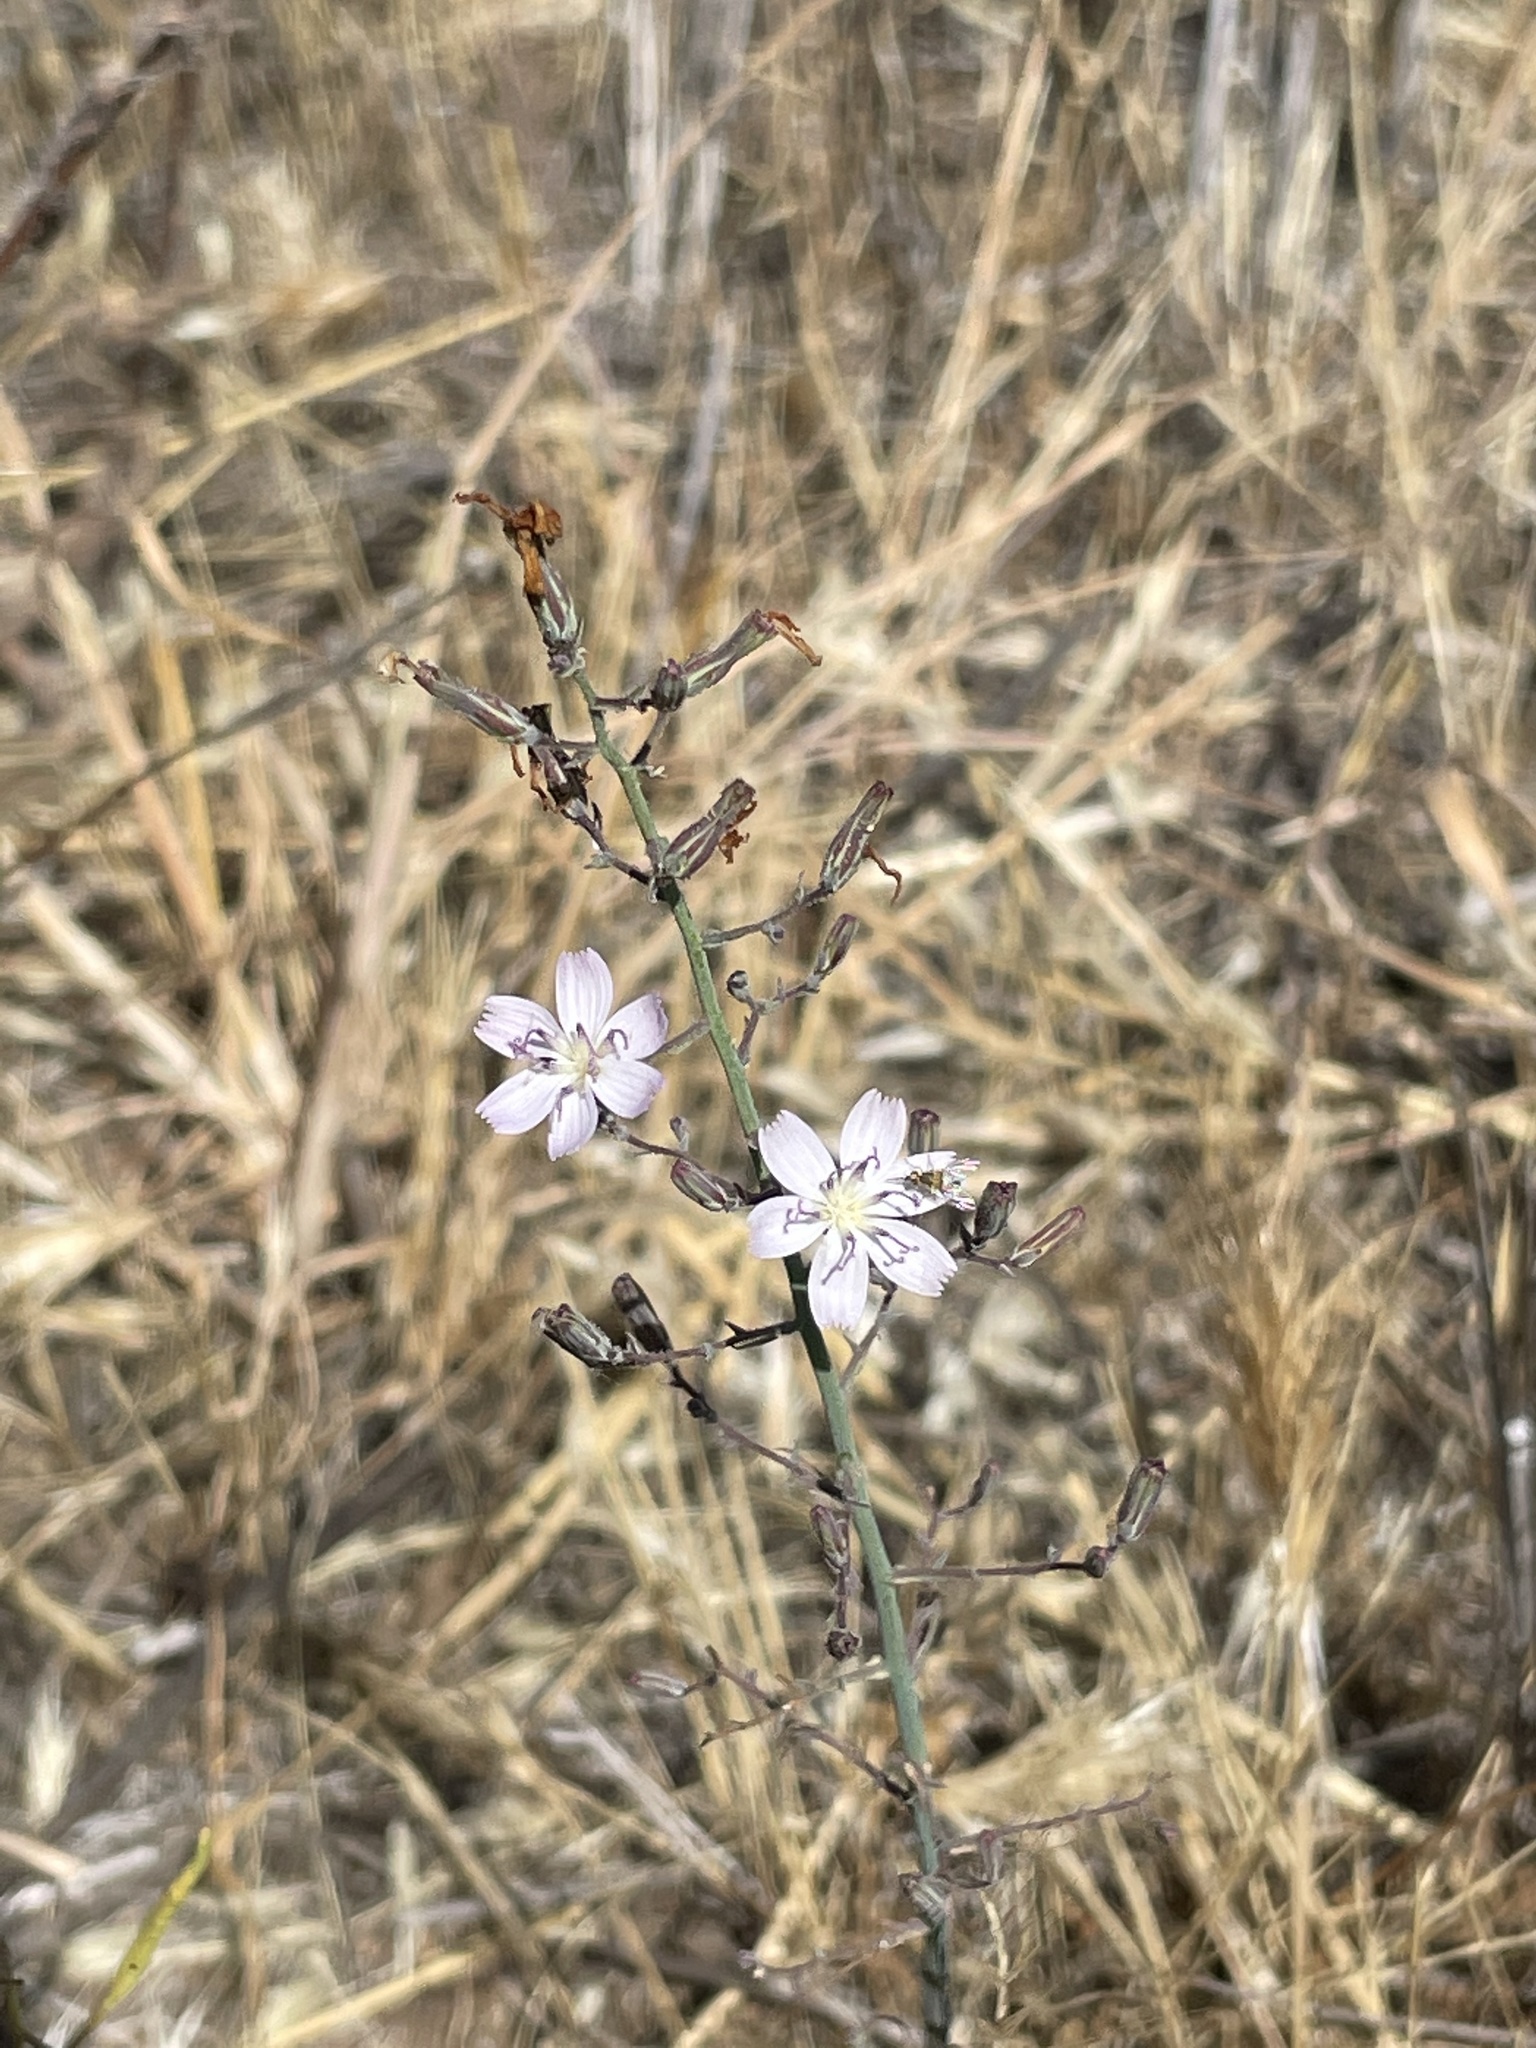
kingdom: Plantae
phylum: Tracheophyta
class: Magnoliopsida
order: Asterales
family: Asteraceae
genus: Stephanomeria
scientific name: Stephanomeria exigua
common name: Small wirelettuce
